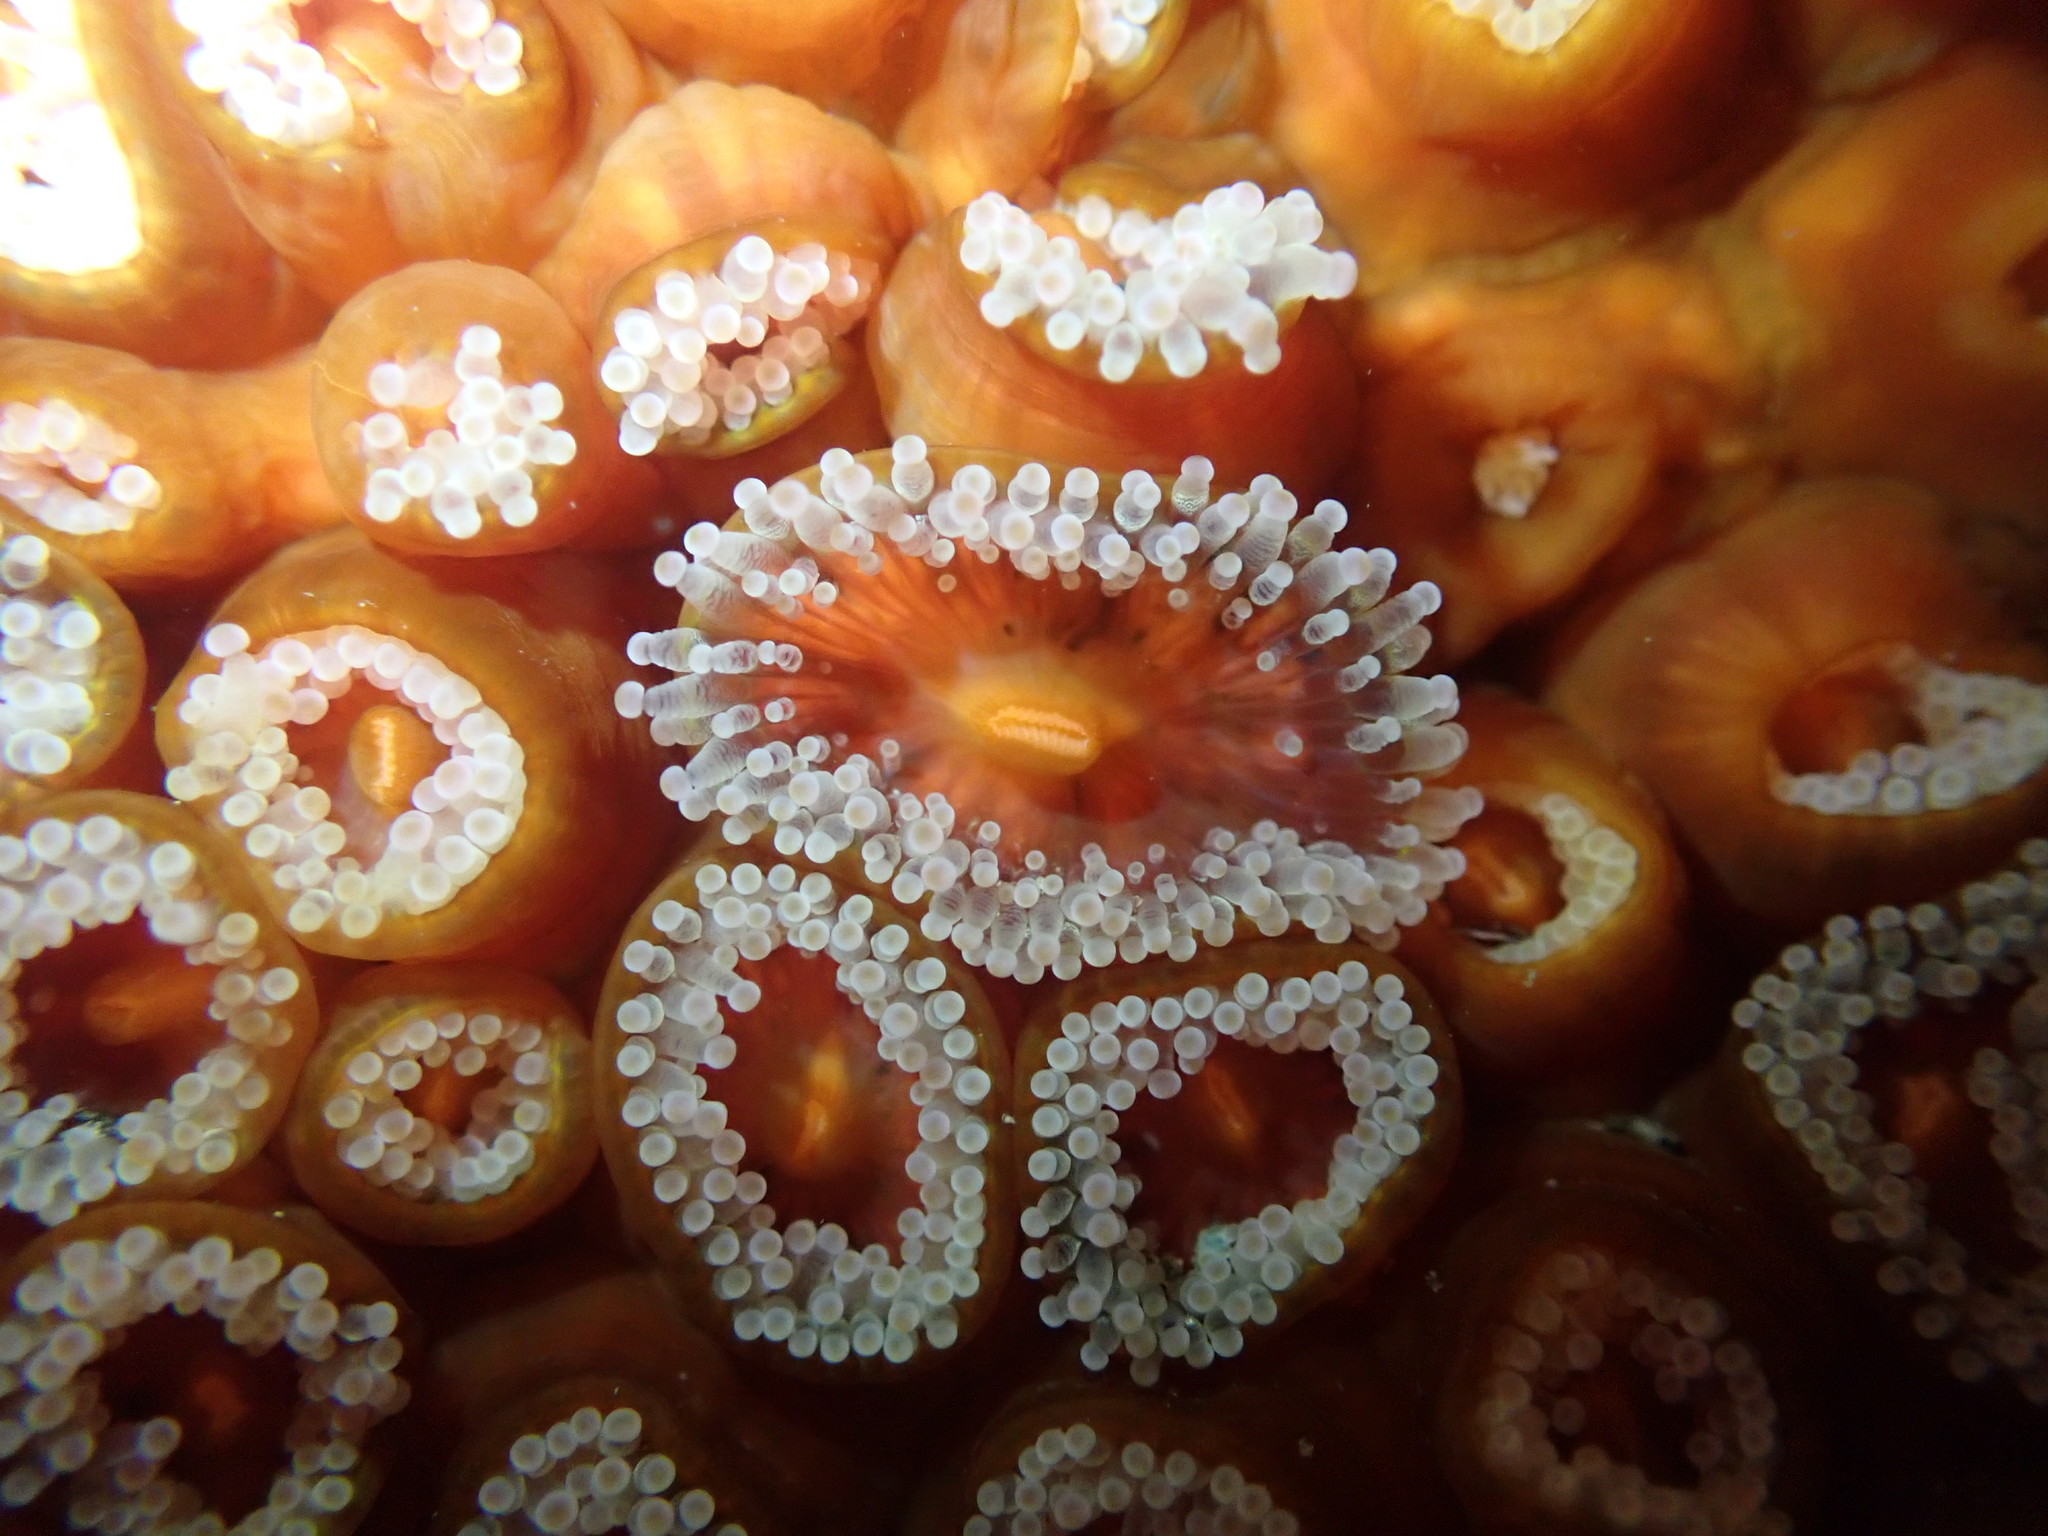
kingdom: Animalia
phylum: Cnidaria
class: Anthozoa
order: Corallimorpharia
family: Corallimorphidae
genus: Corynactis
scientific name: Corynactis australis
